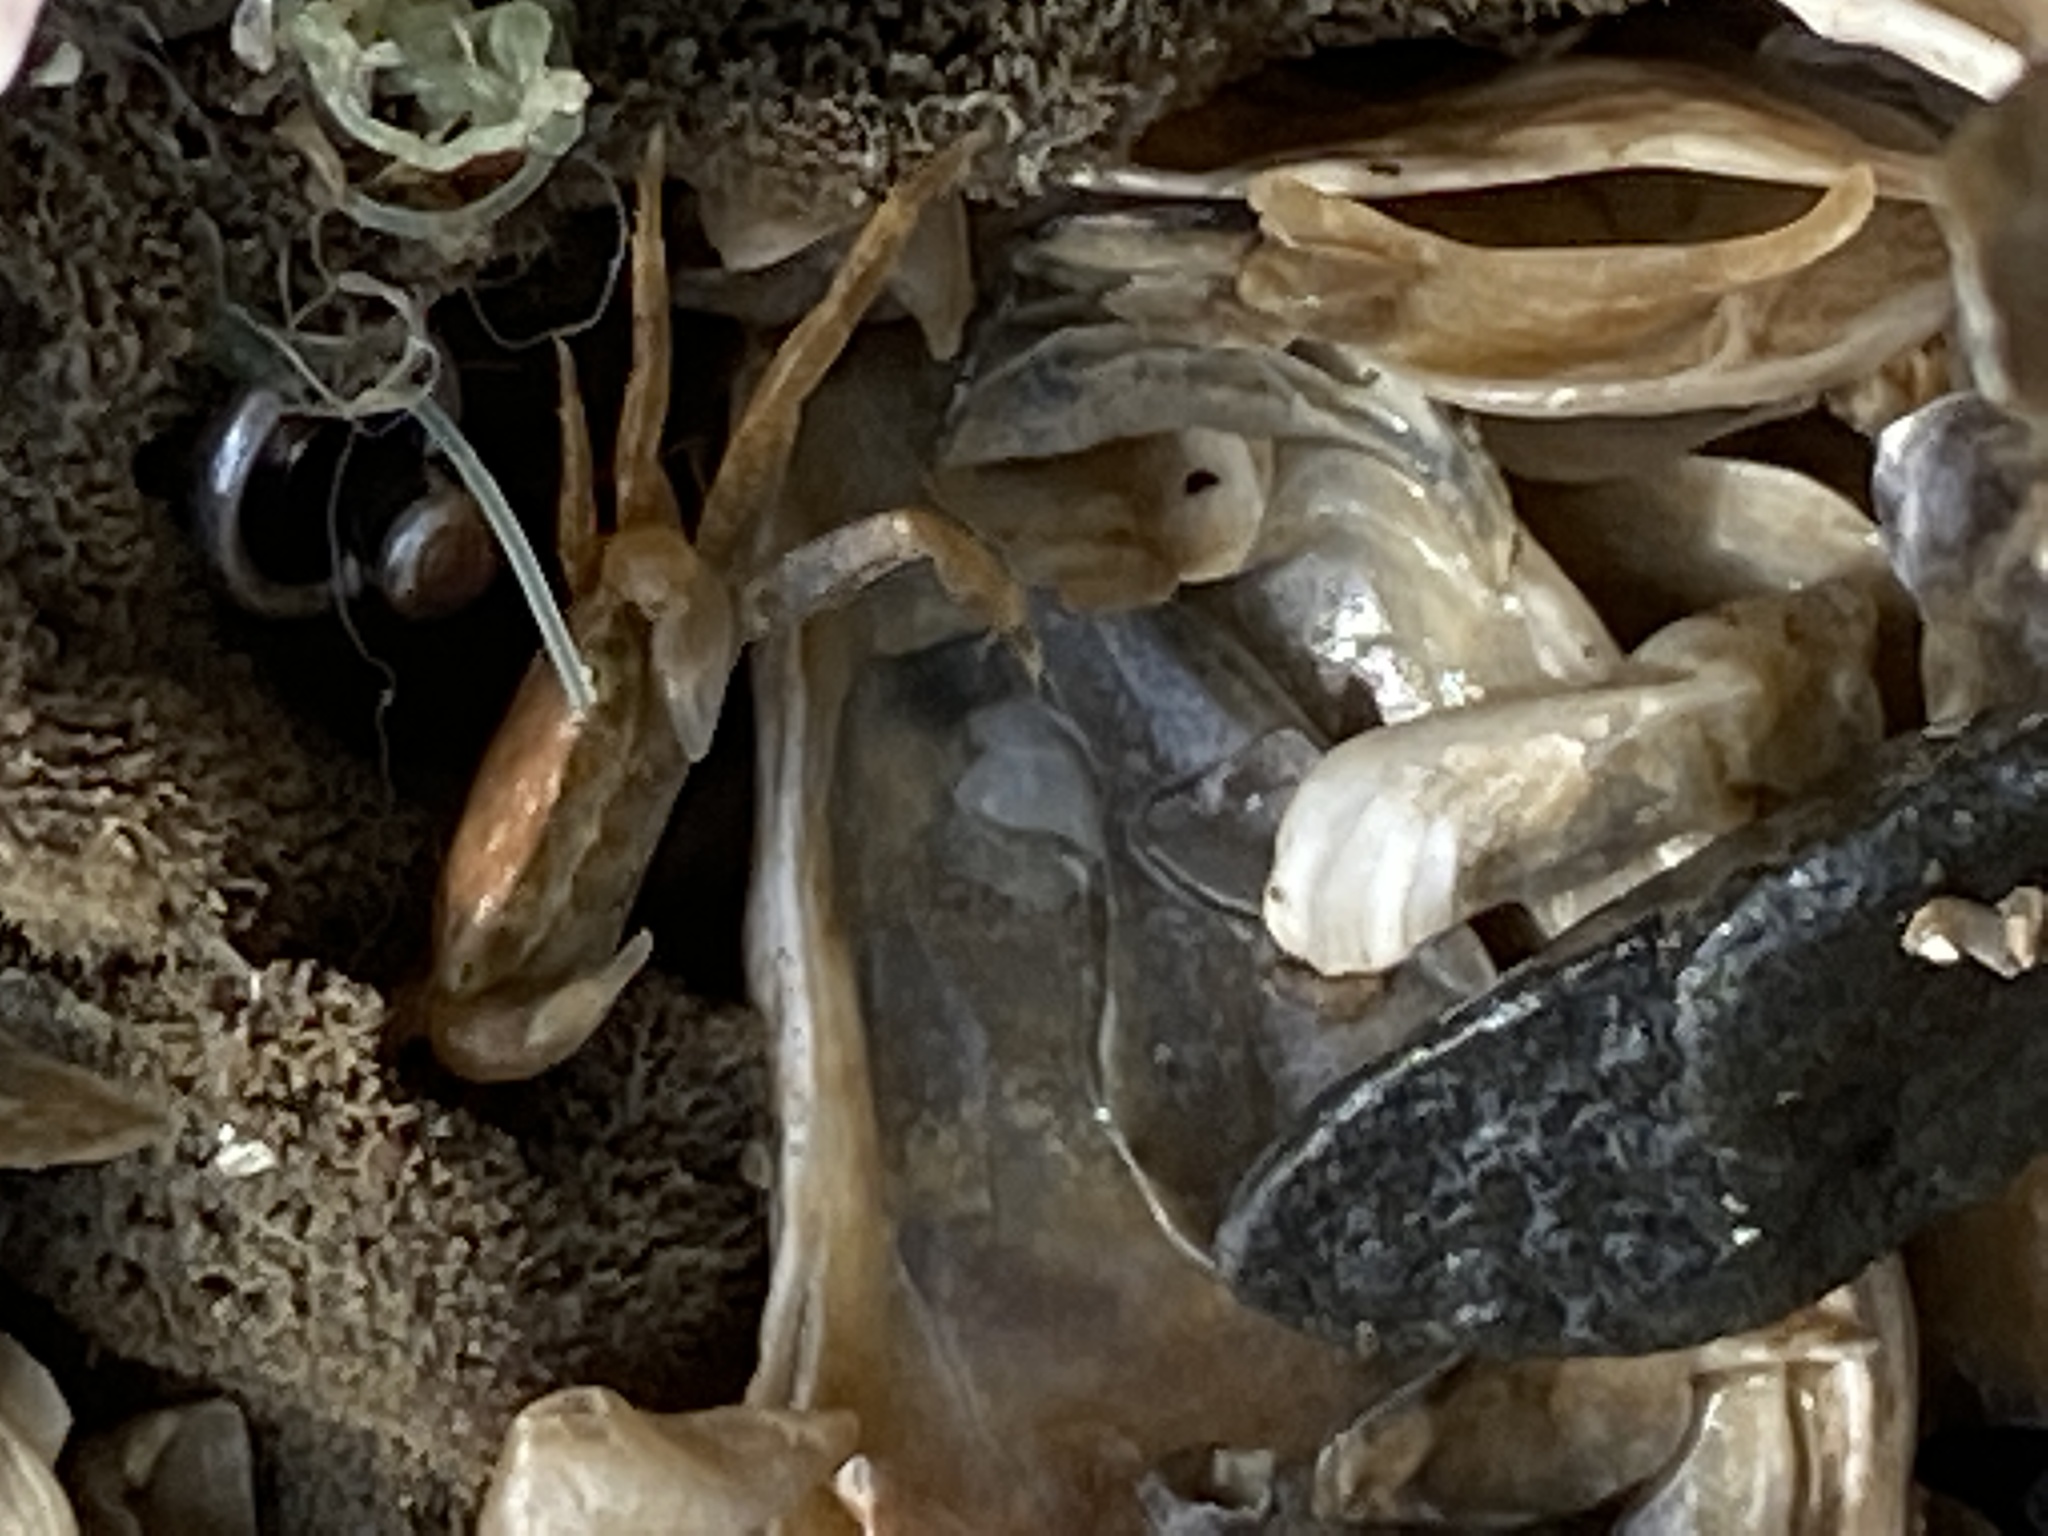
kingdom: Animalia
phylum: Arthropoda
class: Malacostraca
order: Decapoda
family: Varunidae
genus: Hemigrapsus
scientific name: Hemigrapsus oregonensis
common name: Yellow shore crab
